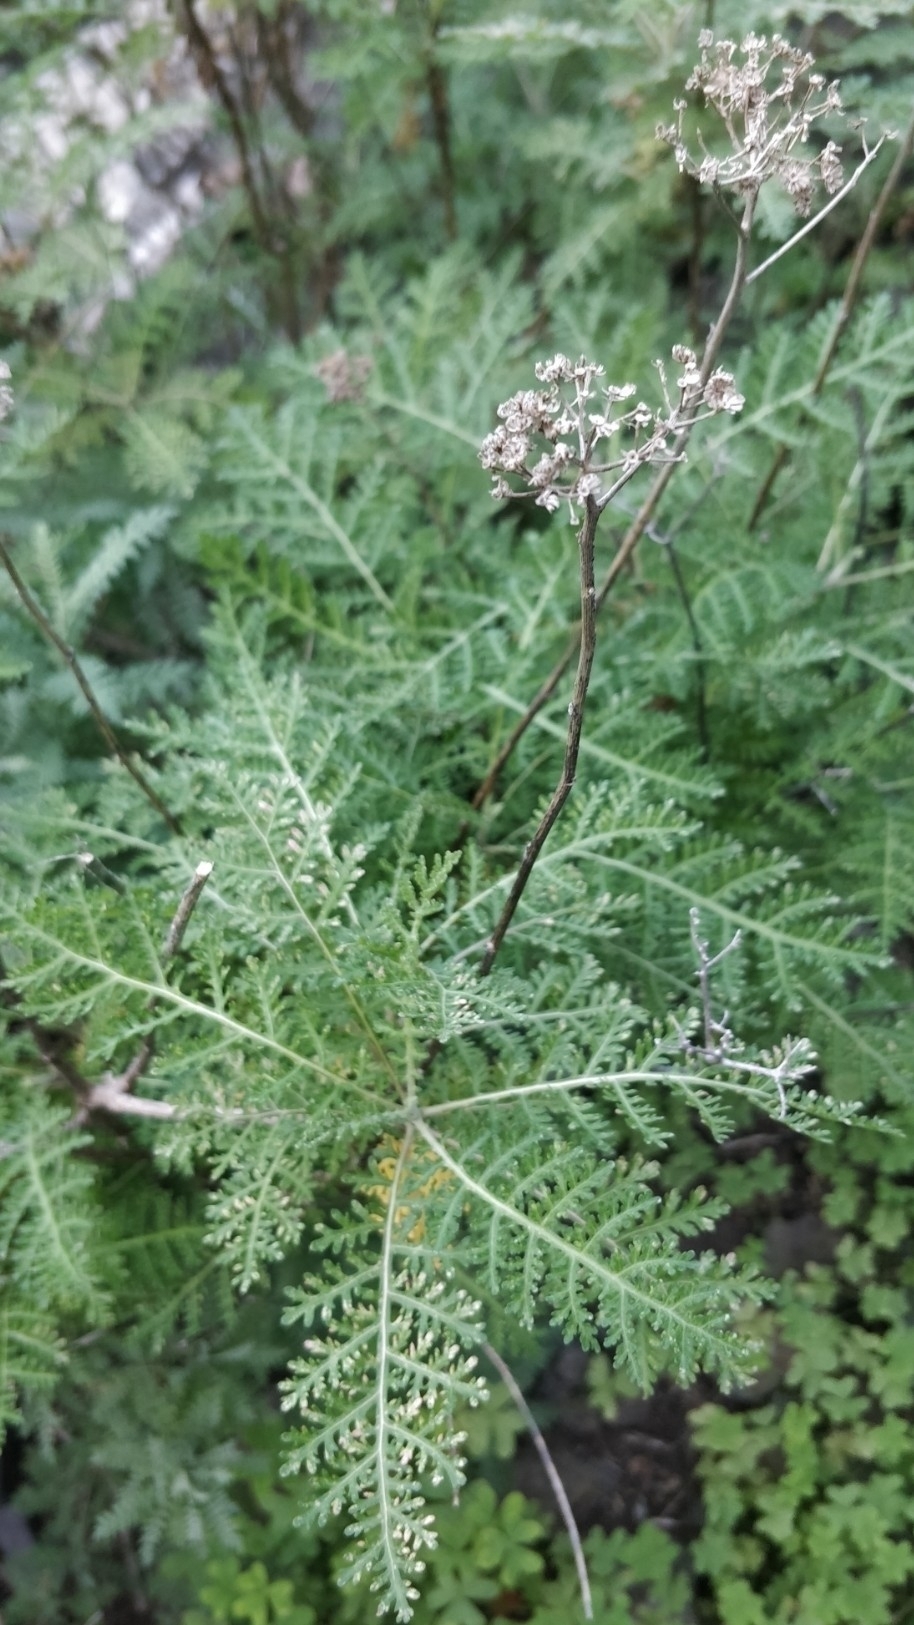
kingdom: Plantae
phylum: Tracheophyta
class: Magnoliopsida
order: Asterales
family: Asteraceae
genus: Gonospermum
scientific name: Gonospermum fruticosum
